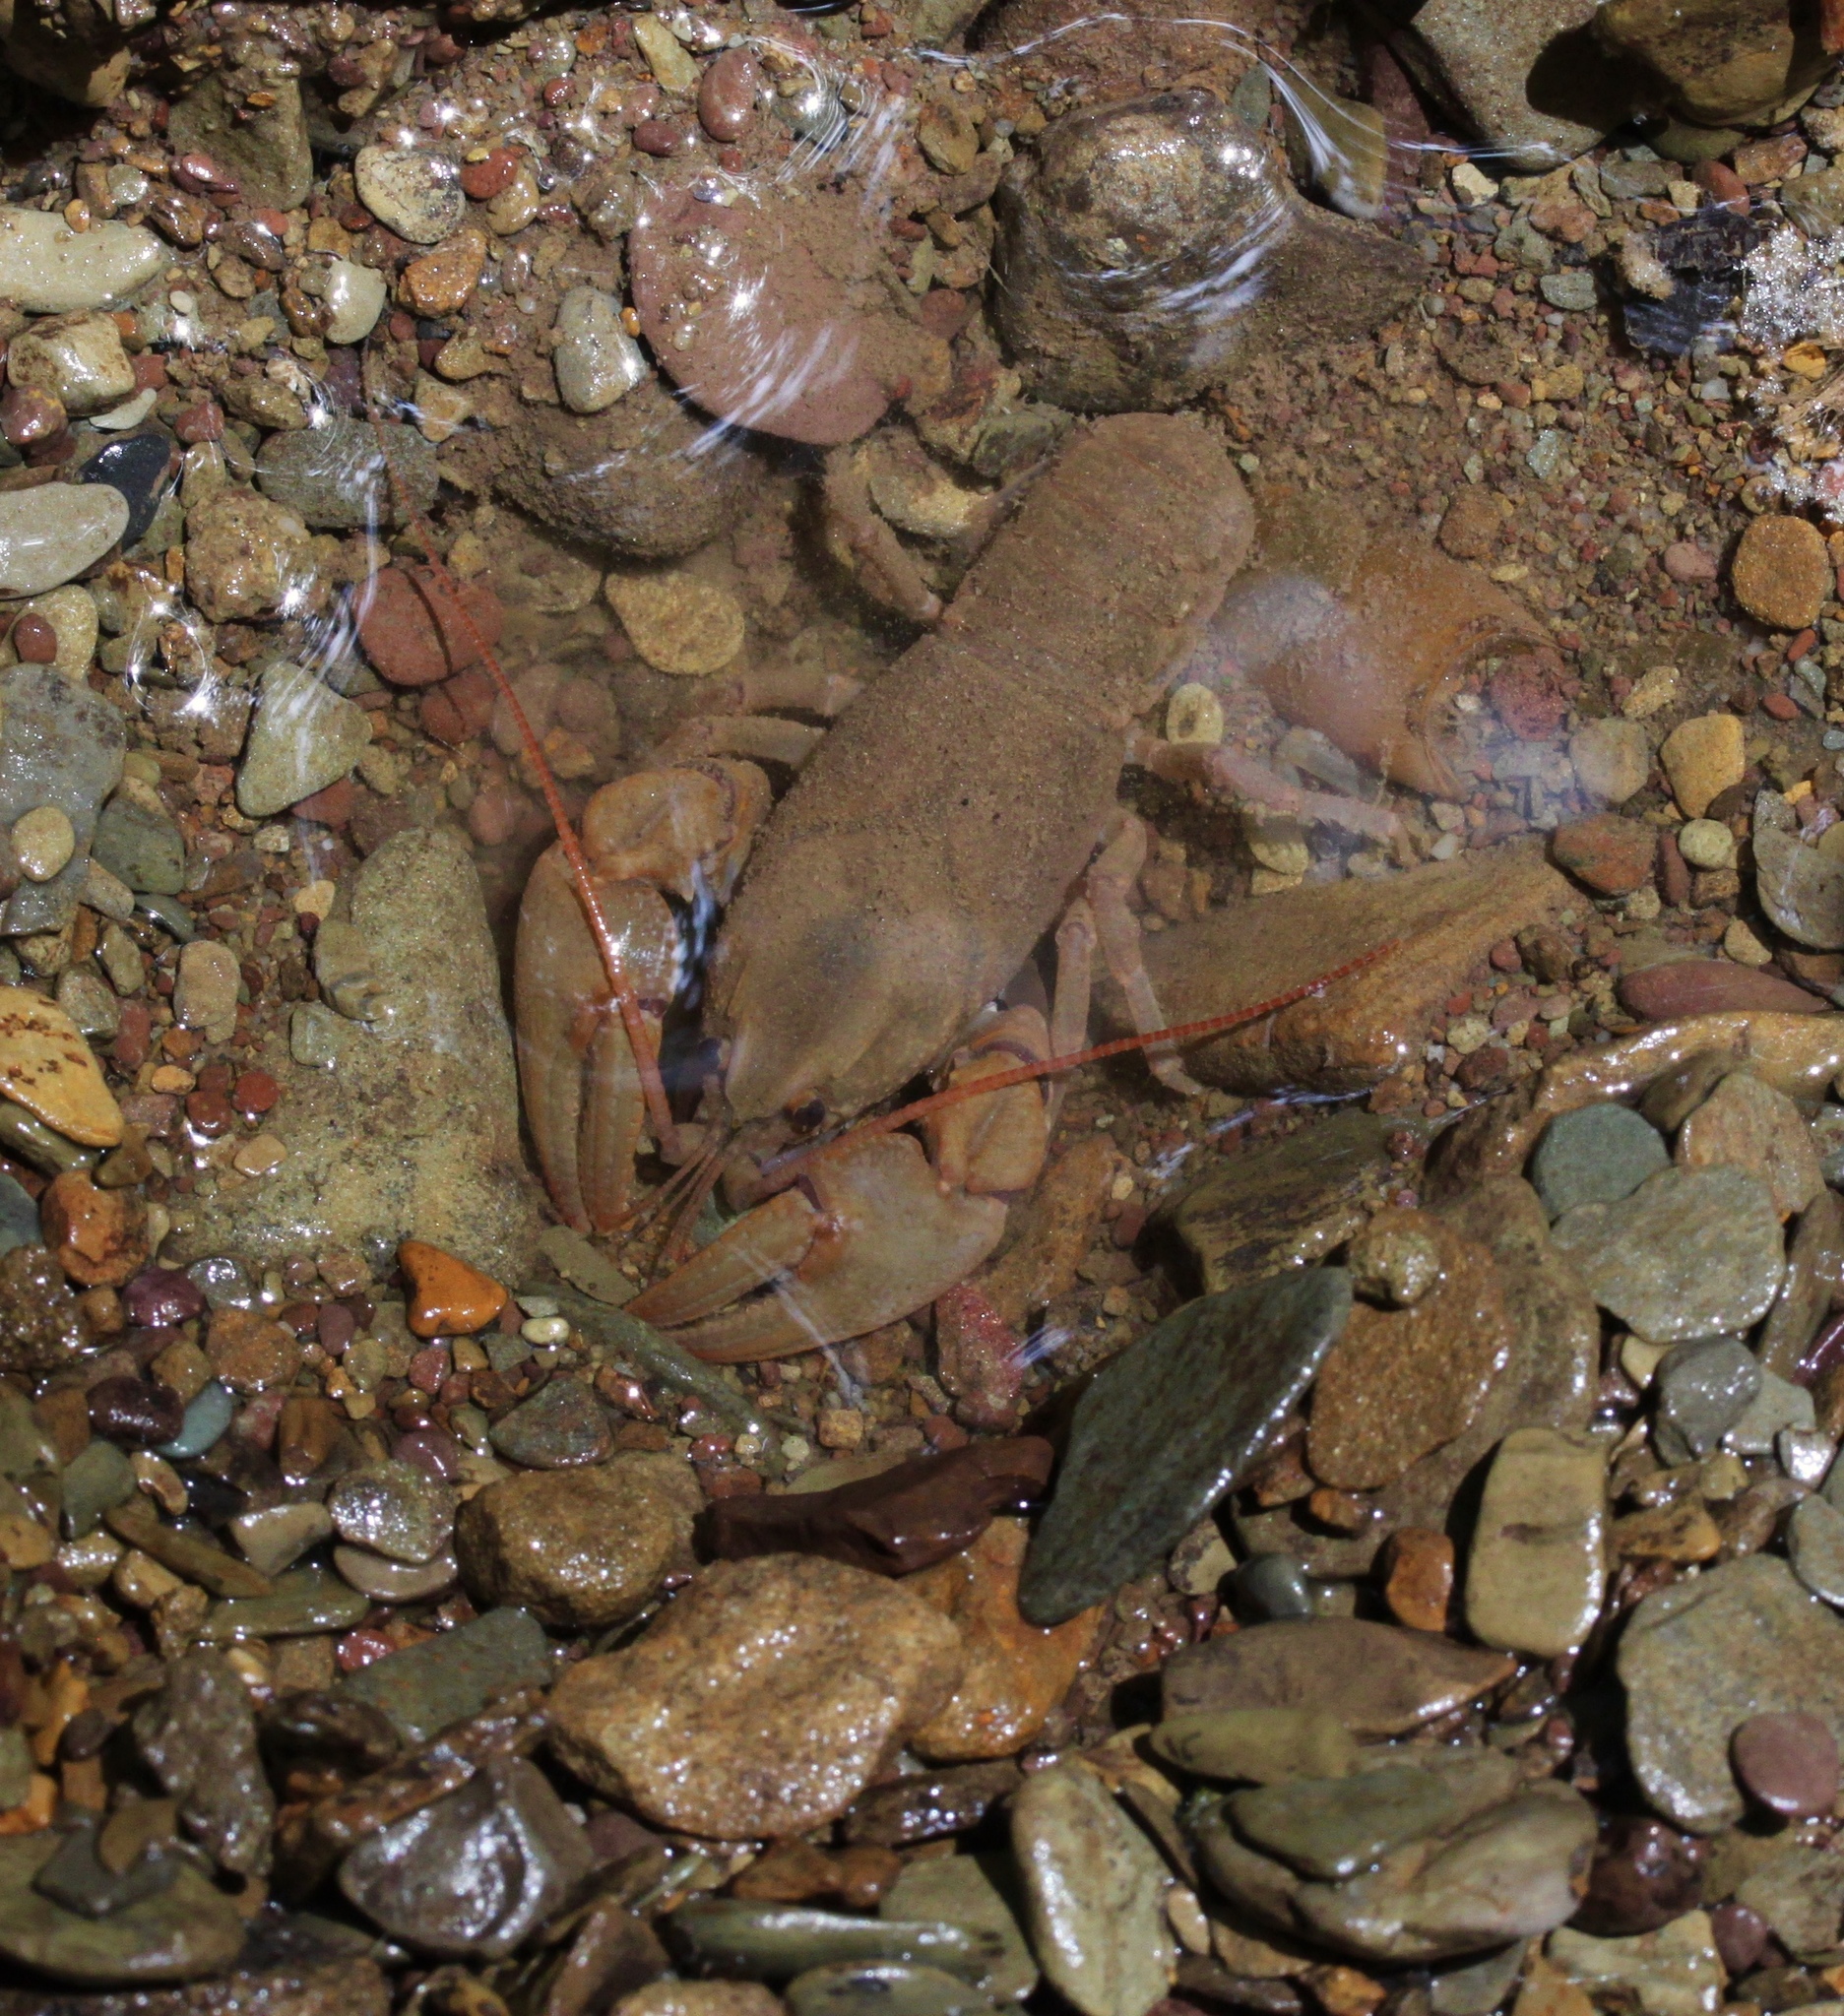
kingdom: Animalia
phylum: Arthropoda
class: Malacostraca
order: Decapoda
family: Cambaridae
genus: Cambarus
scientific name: Cambarus carinirostris
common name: Rock crayfish
